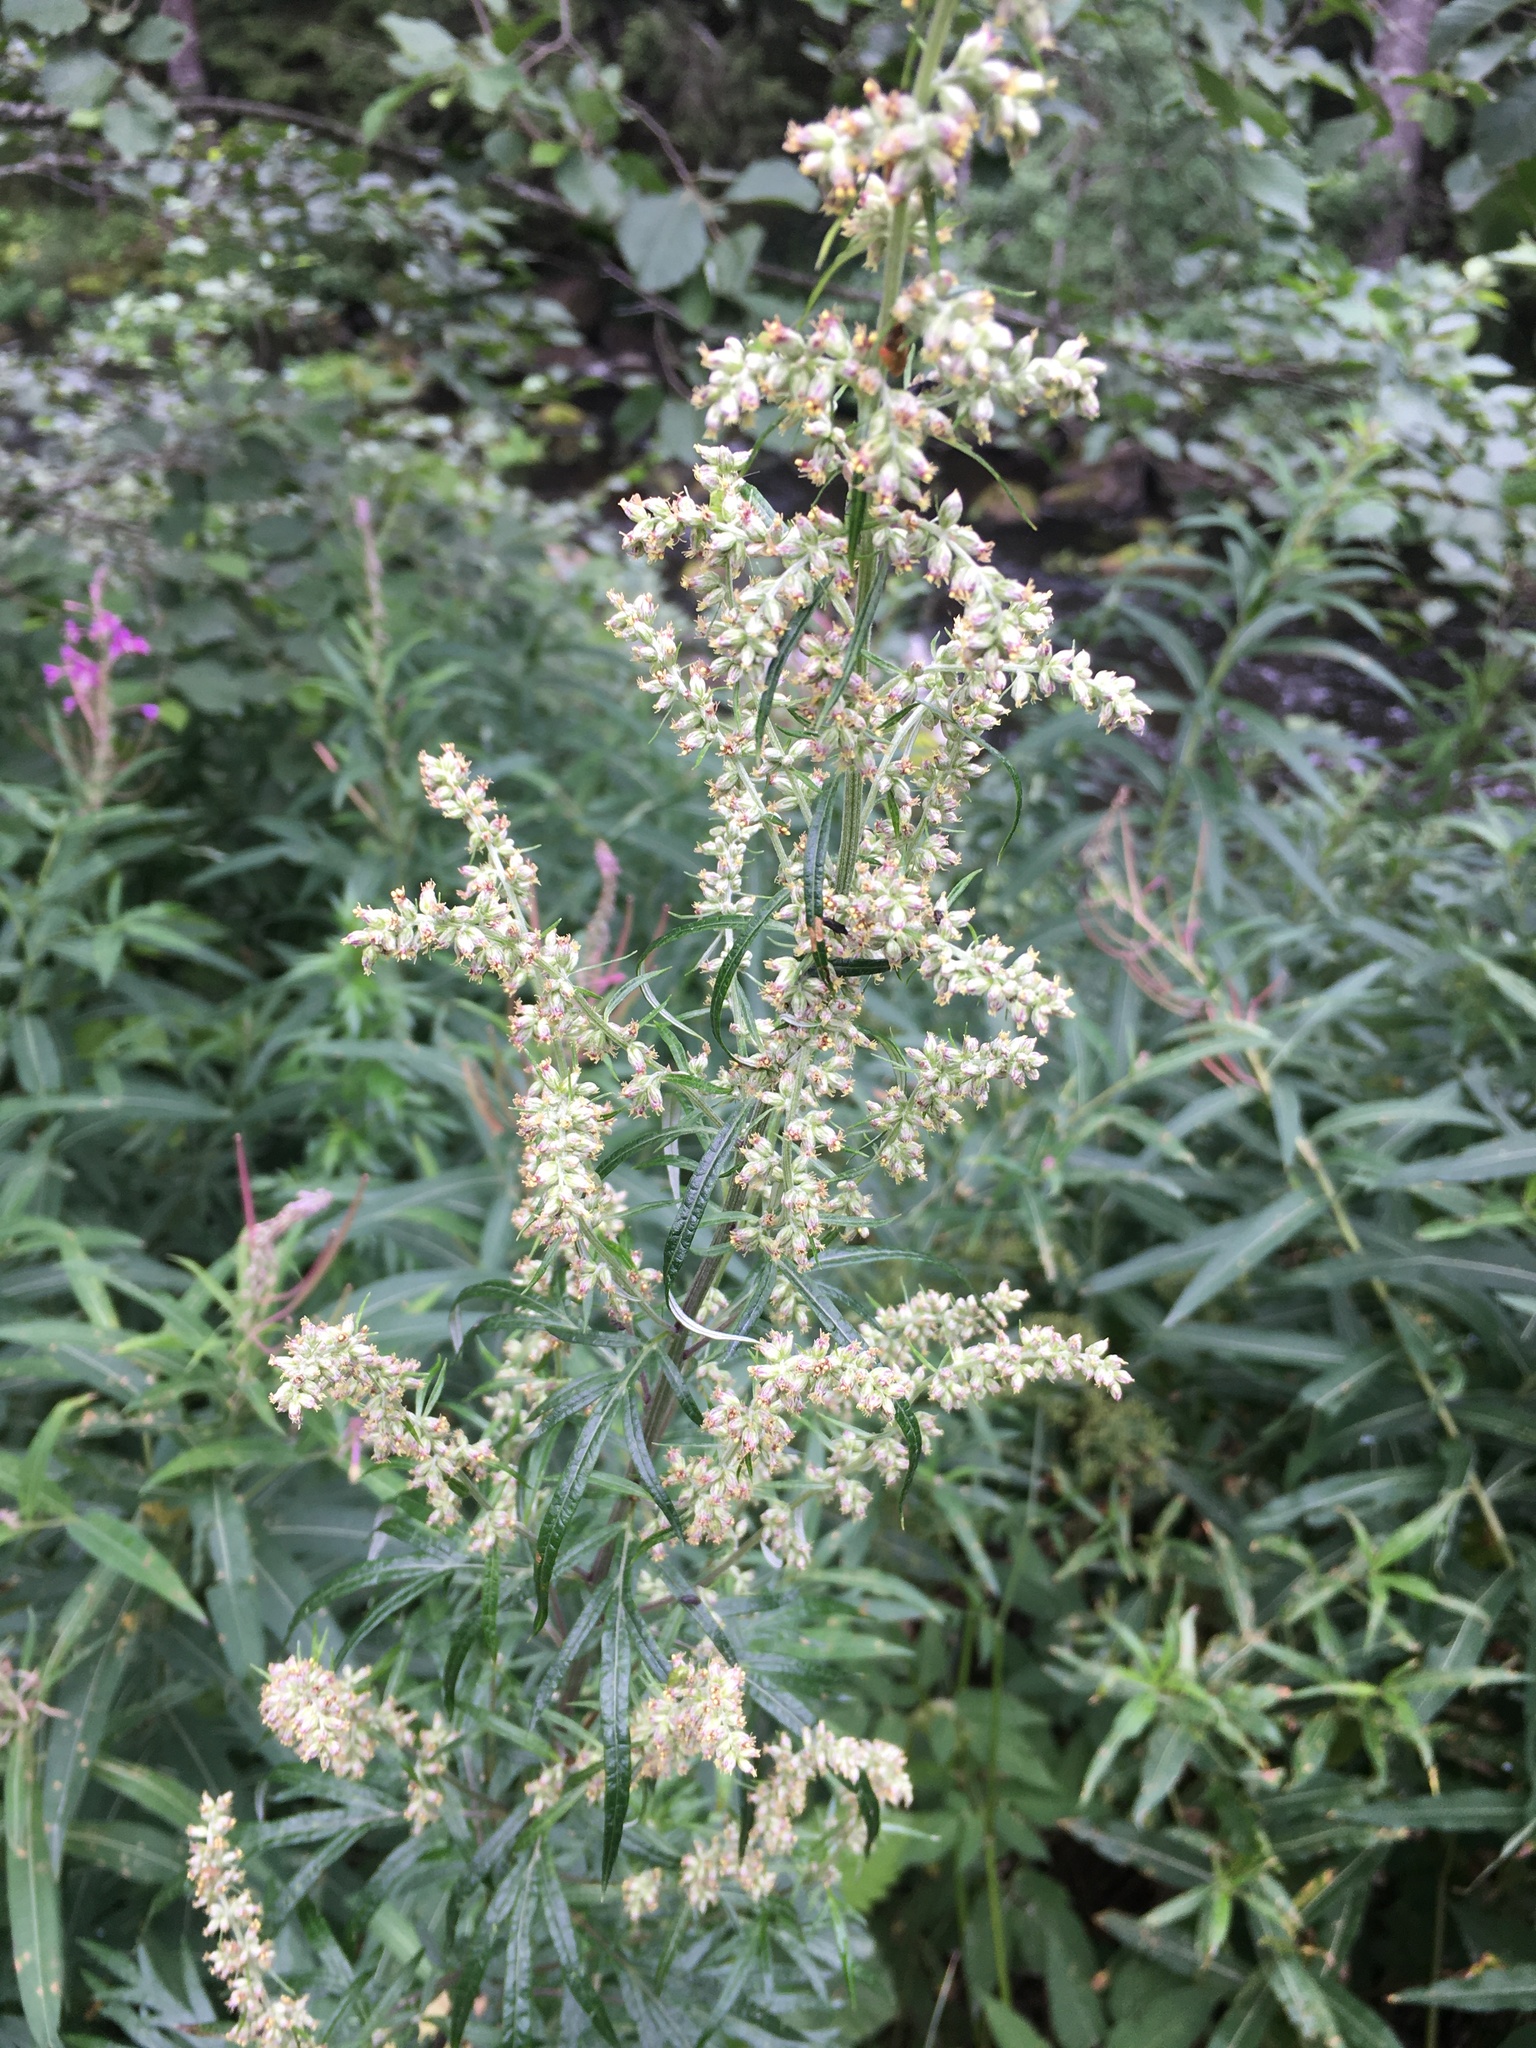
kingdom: Plantae
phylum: Tracheophyta
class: Magnoliopsida
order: Asterales
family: Asteraceae
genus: Artemisia
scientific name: Artemisia vulgaris
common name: Mugwort
